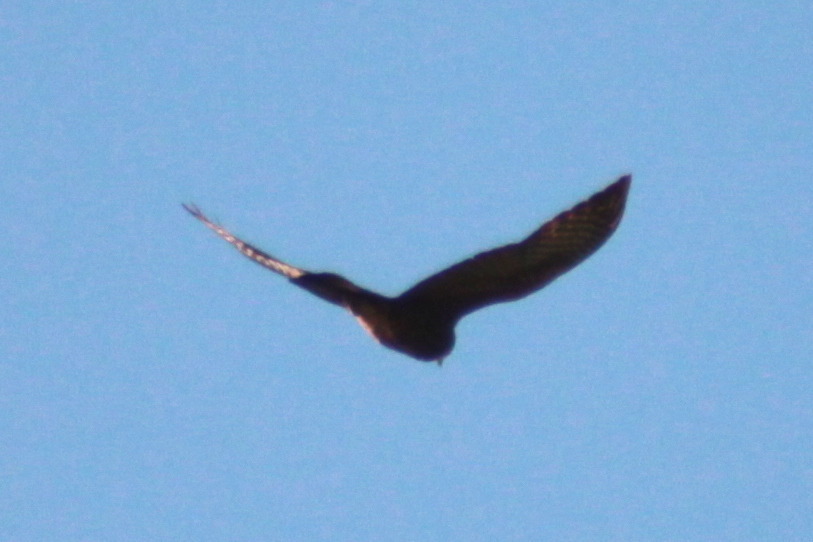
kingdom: Animalia
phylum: Chordata
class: Aves
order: Falconiformes
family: Falconidae
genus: Falco
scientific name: Falco novaeseelandiae
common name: New zealand falcon
